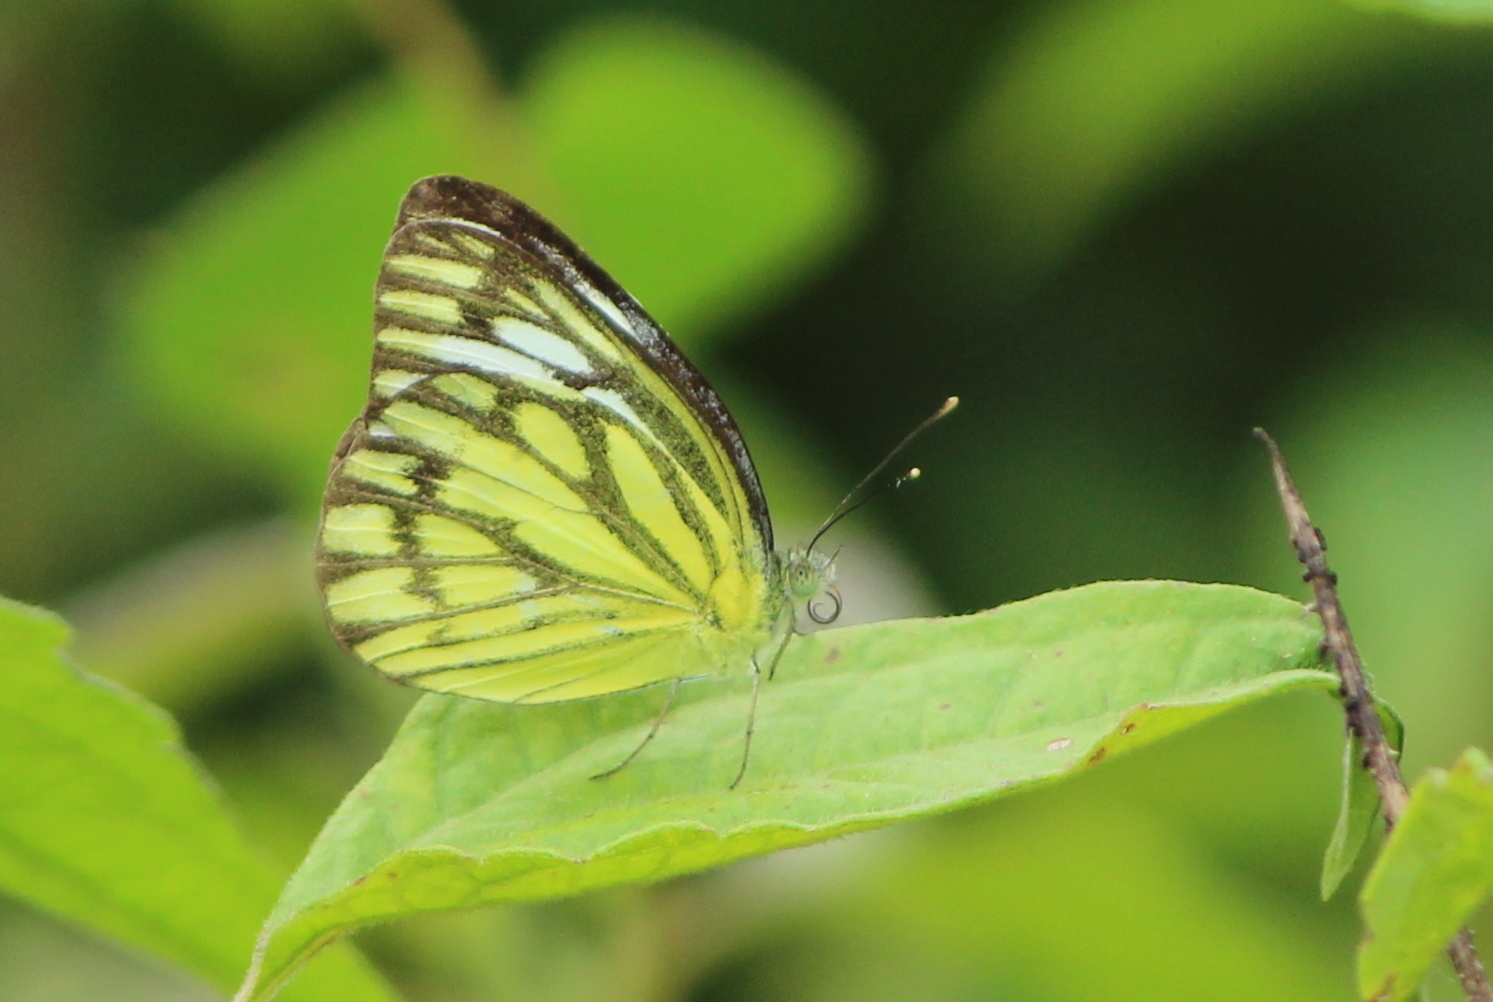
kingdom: Animalia
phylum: Arthropoda
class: Insecta
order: Lepidoptera
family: Pieridae
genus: Cepora
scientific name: Cepora nerissa
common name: Common gull
